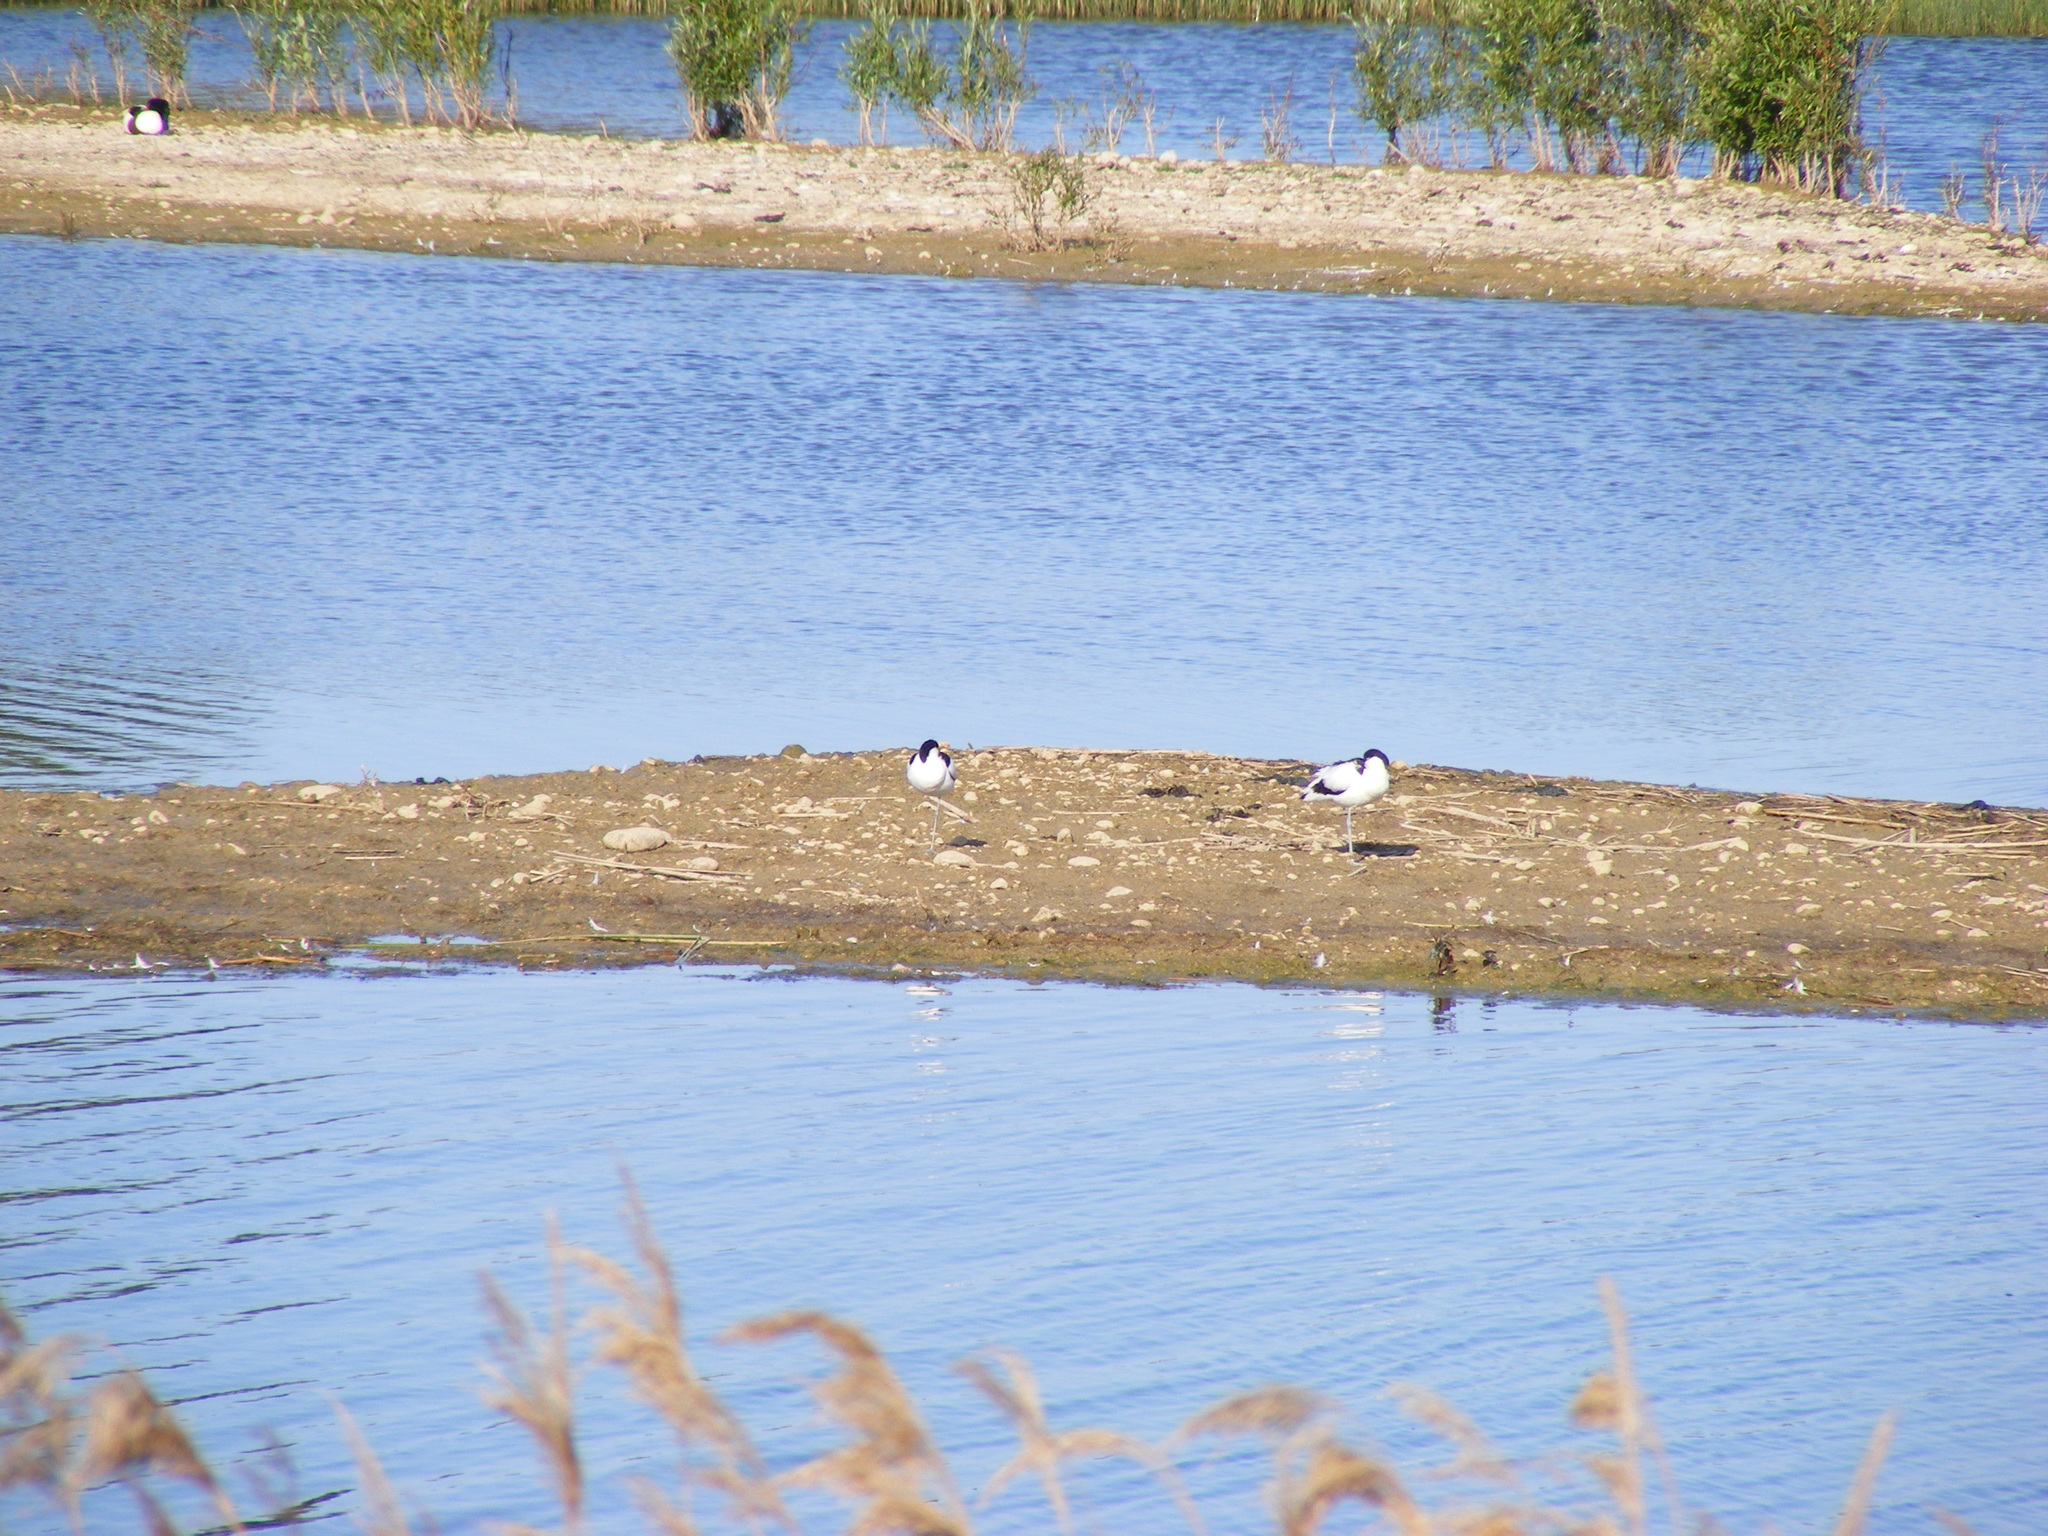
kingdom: Animalia
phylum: Chordata
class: Aves
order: Charadriiformes
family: Recurvirostridae
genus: Recurvirostra
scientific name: Recurvirostra avosetta
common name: Pied avocet
